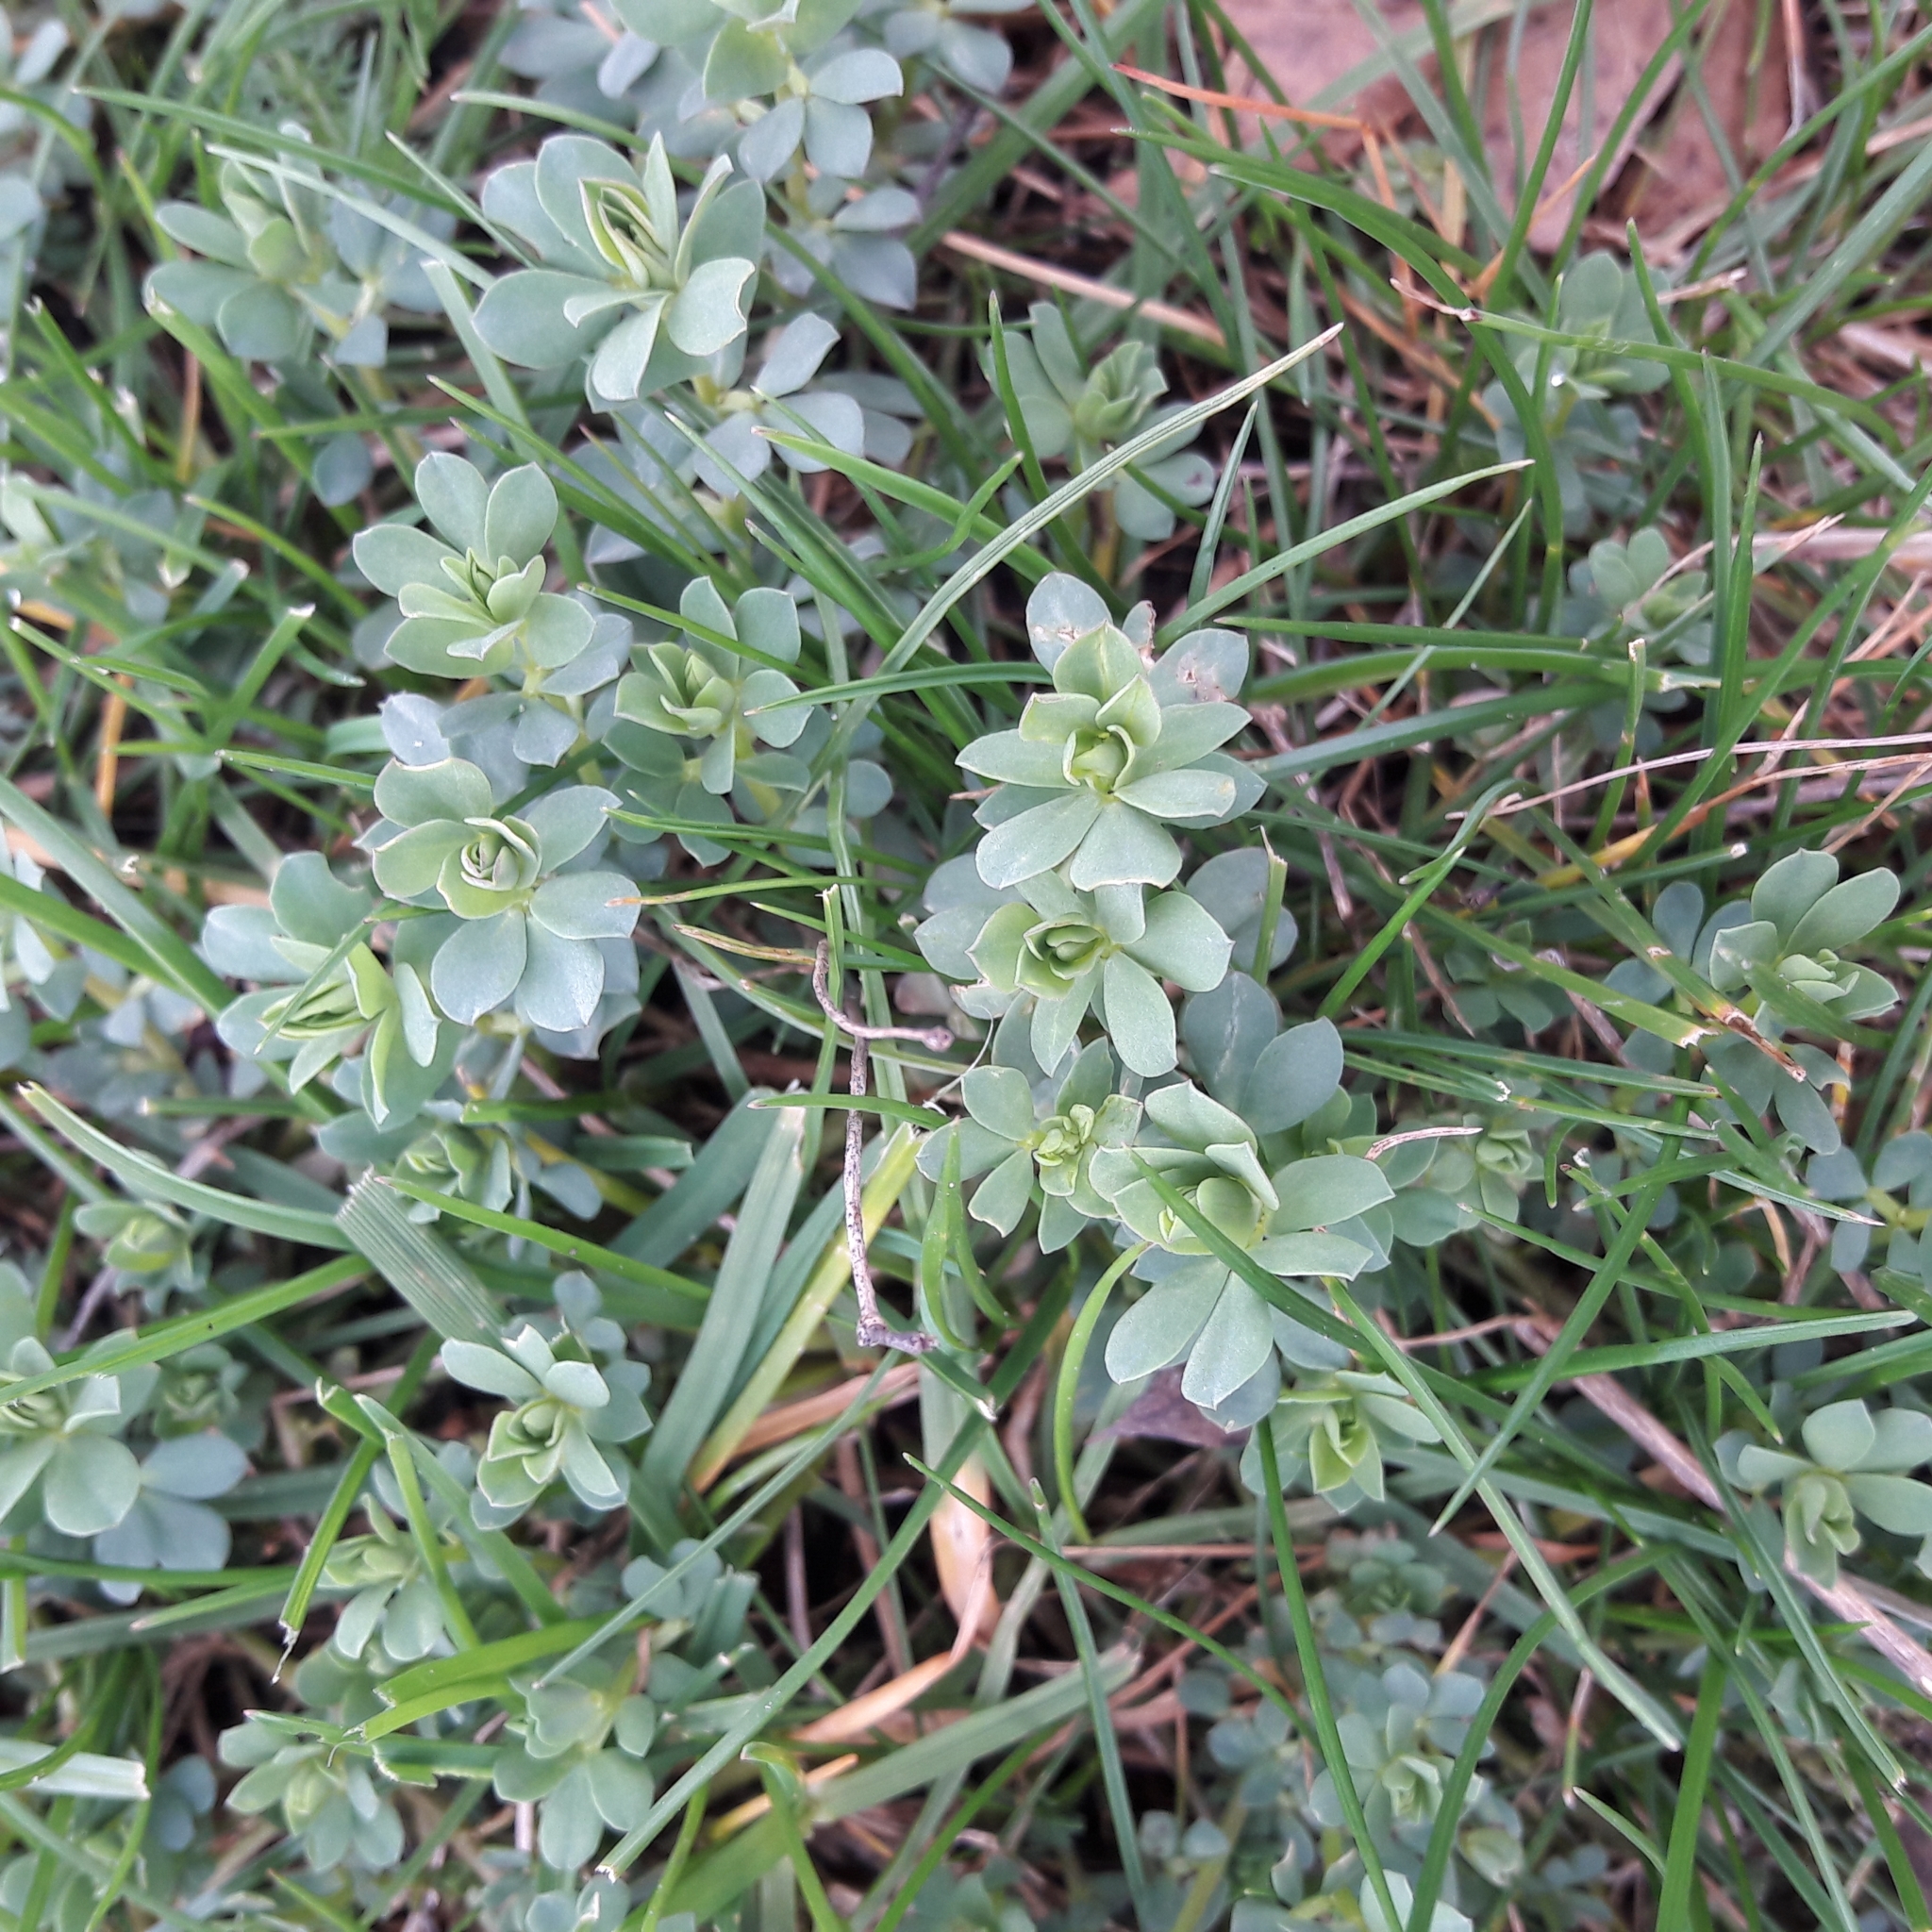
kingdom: Plantae
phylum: Tracheophyta
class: Magnoliopsida
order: Fabales
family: Fabaceae
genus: Lotus
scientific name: Lotus corniculatus
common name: Common bird's-foot-trefoil
